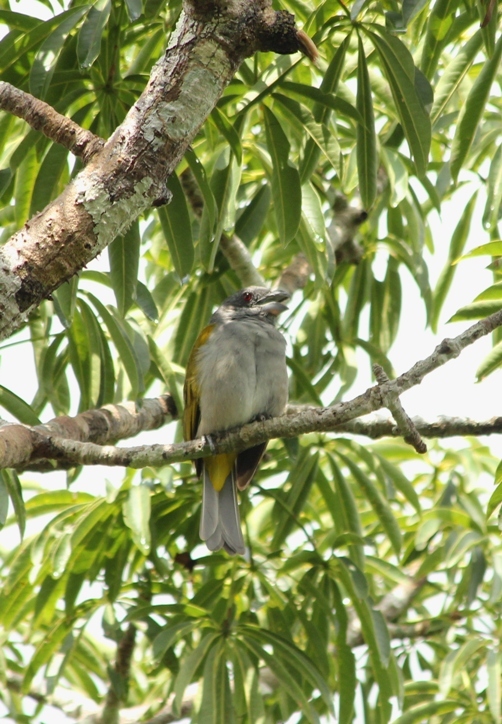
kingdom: Animalia
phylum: Chordata
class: Aves
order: Passeriformes
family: Thraupidae
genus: Parkerthraustes
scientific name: Parkerthraustes humeralis
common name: Yellow-shouldered grosbeak
